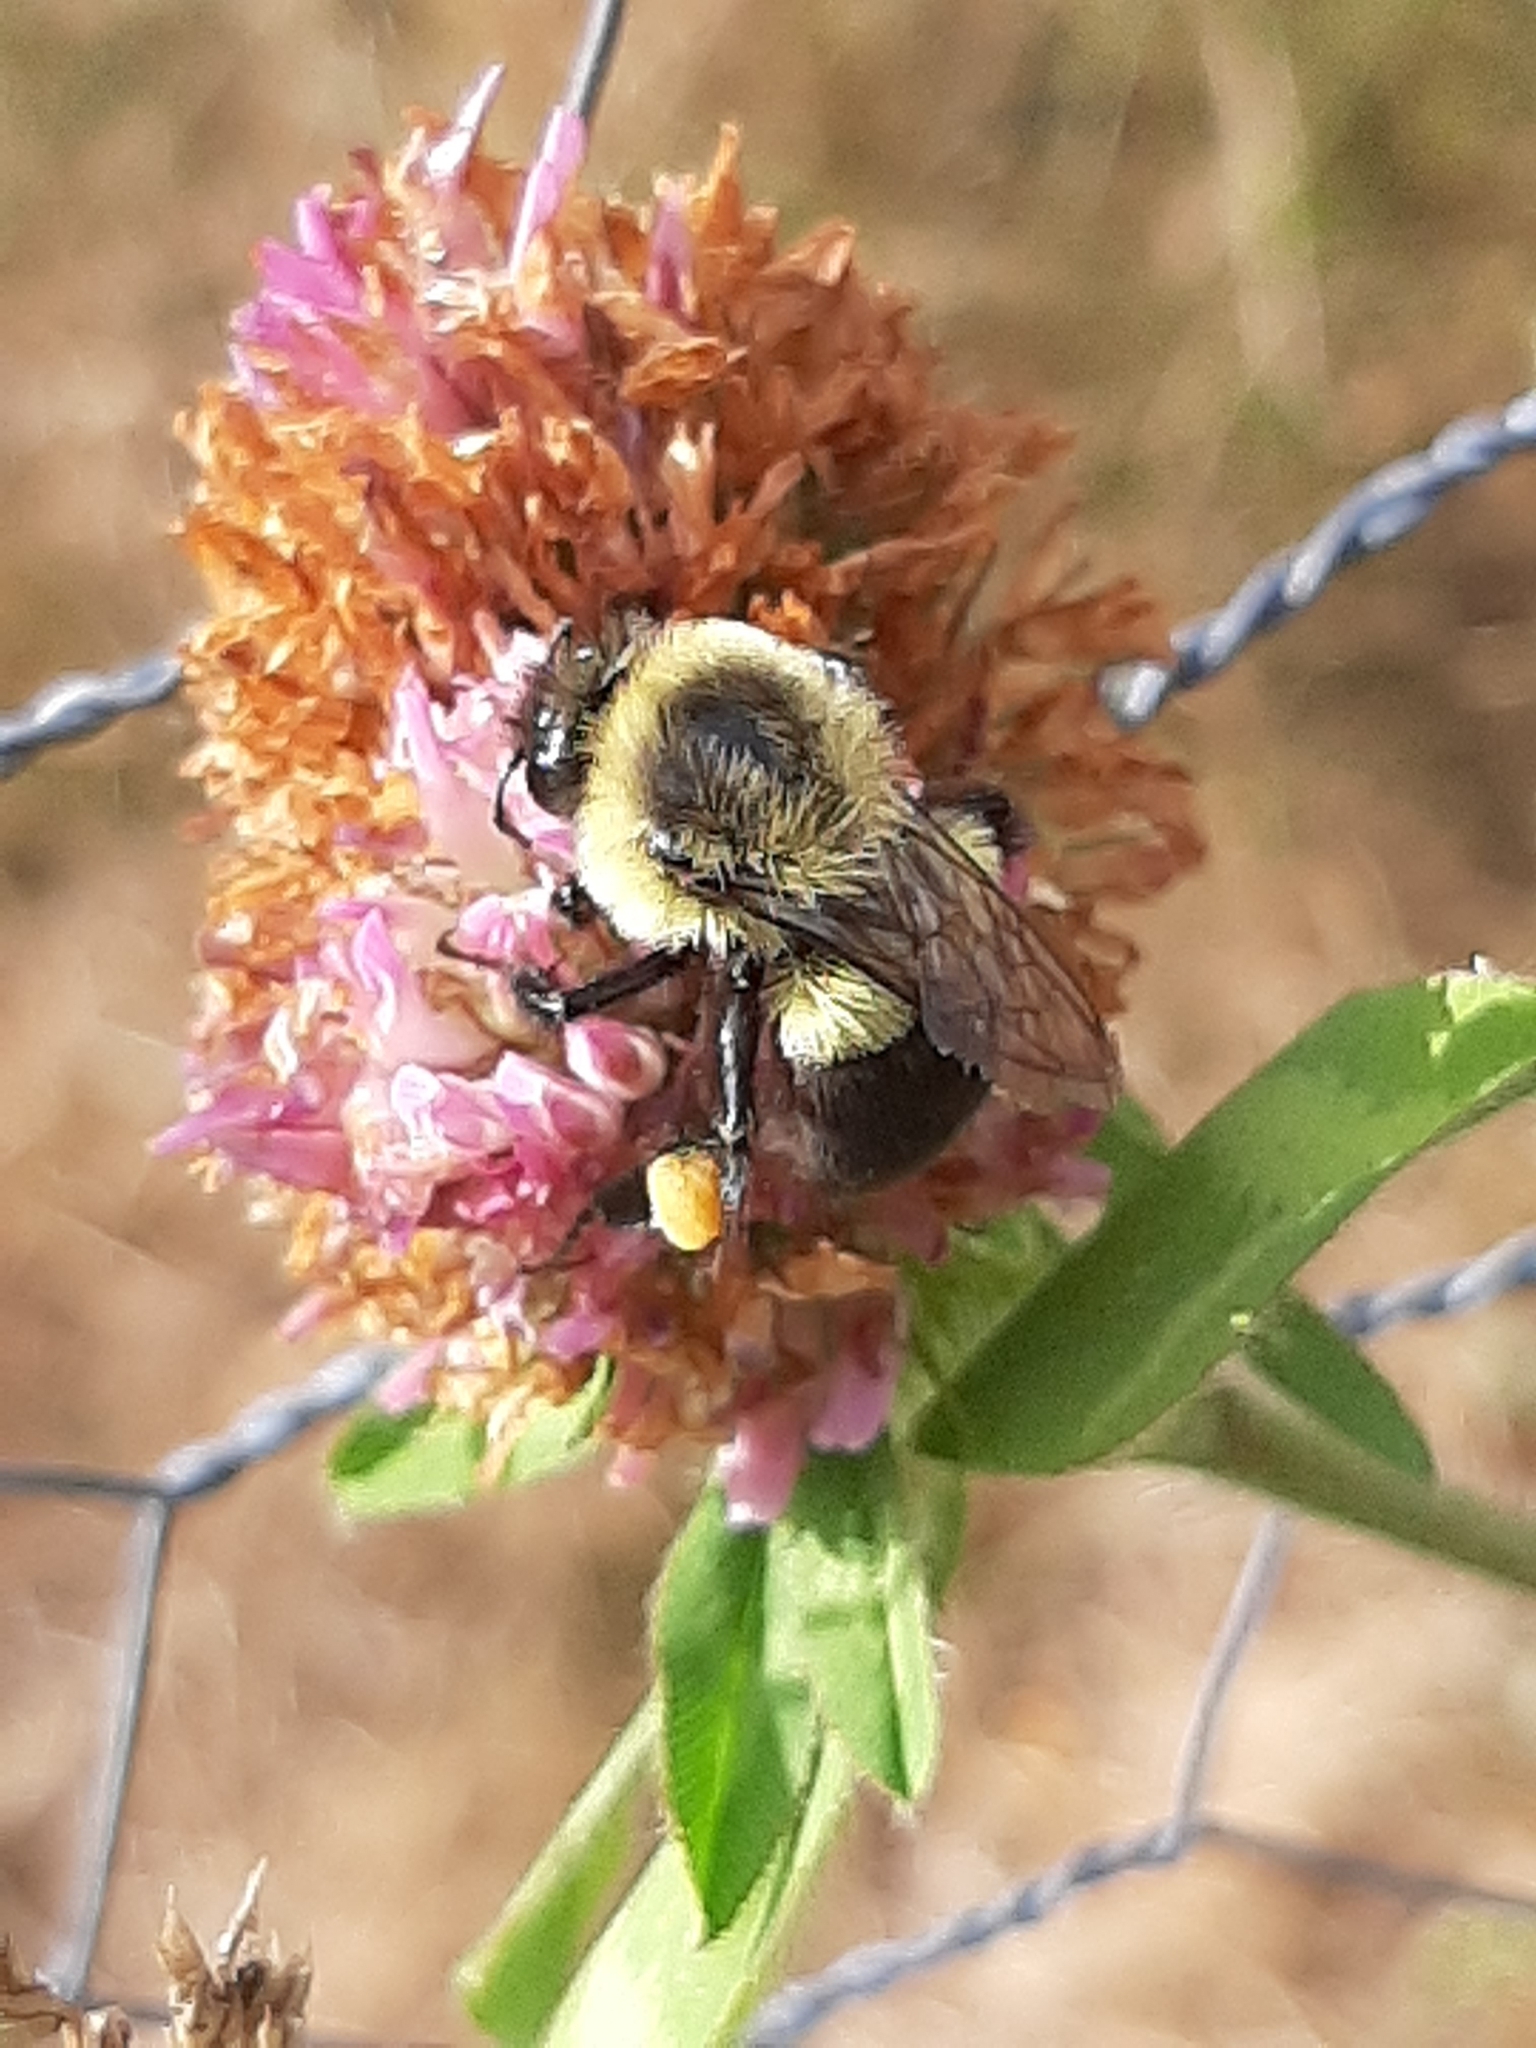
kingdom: Animalia
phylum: Arthropoda
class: Insecta
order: Hymenoptera
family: Apidae
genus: Bombus
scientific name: Bombus impatiens
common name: Common eastern bumble bee
